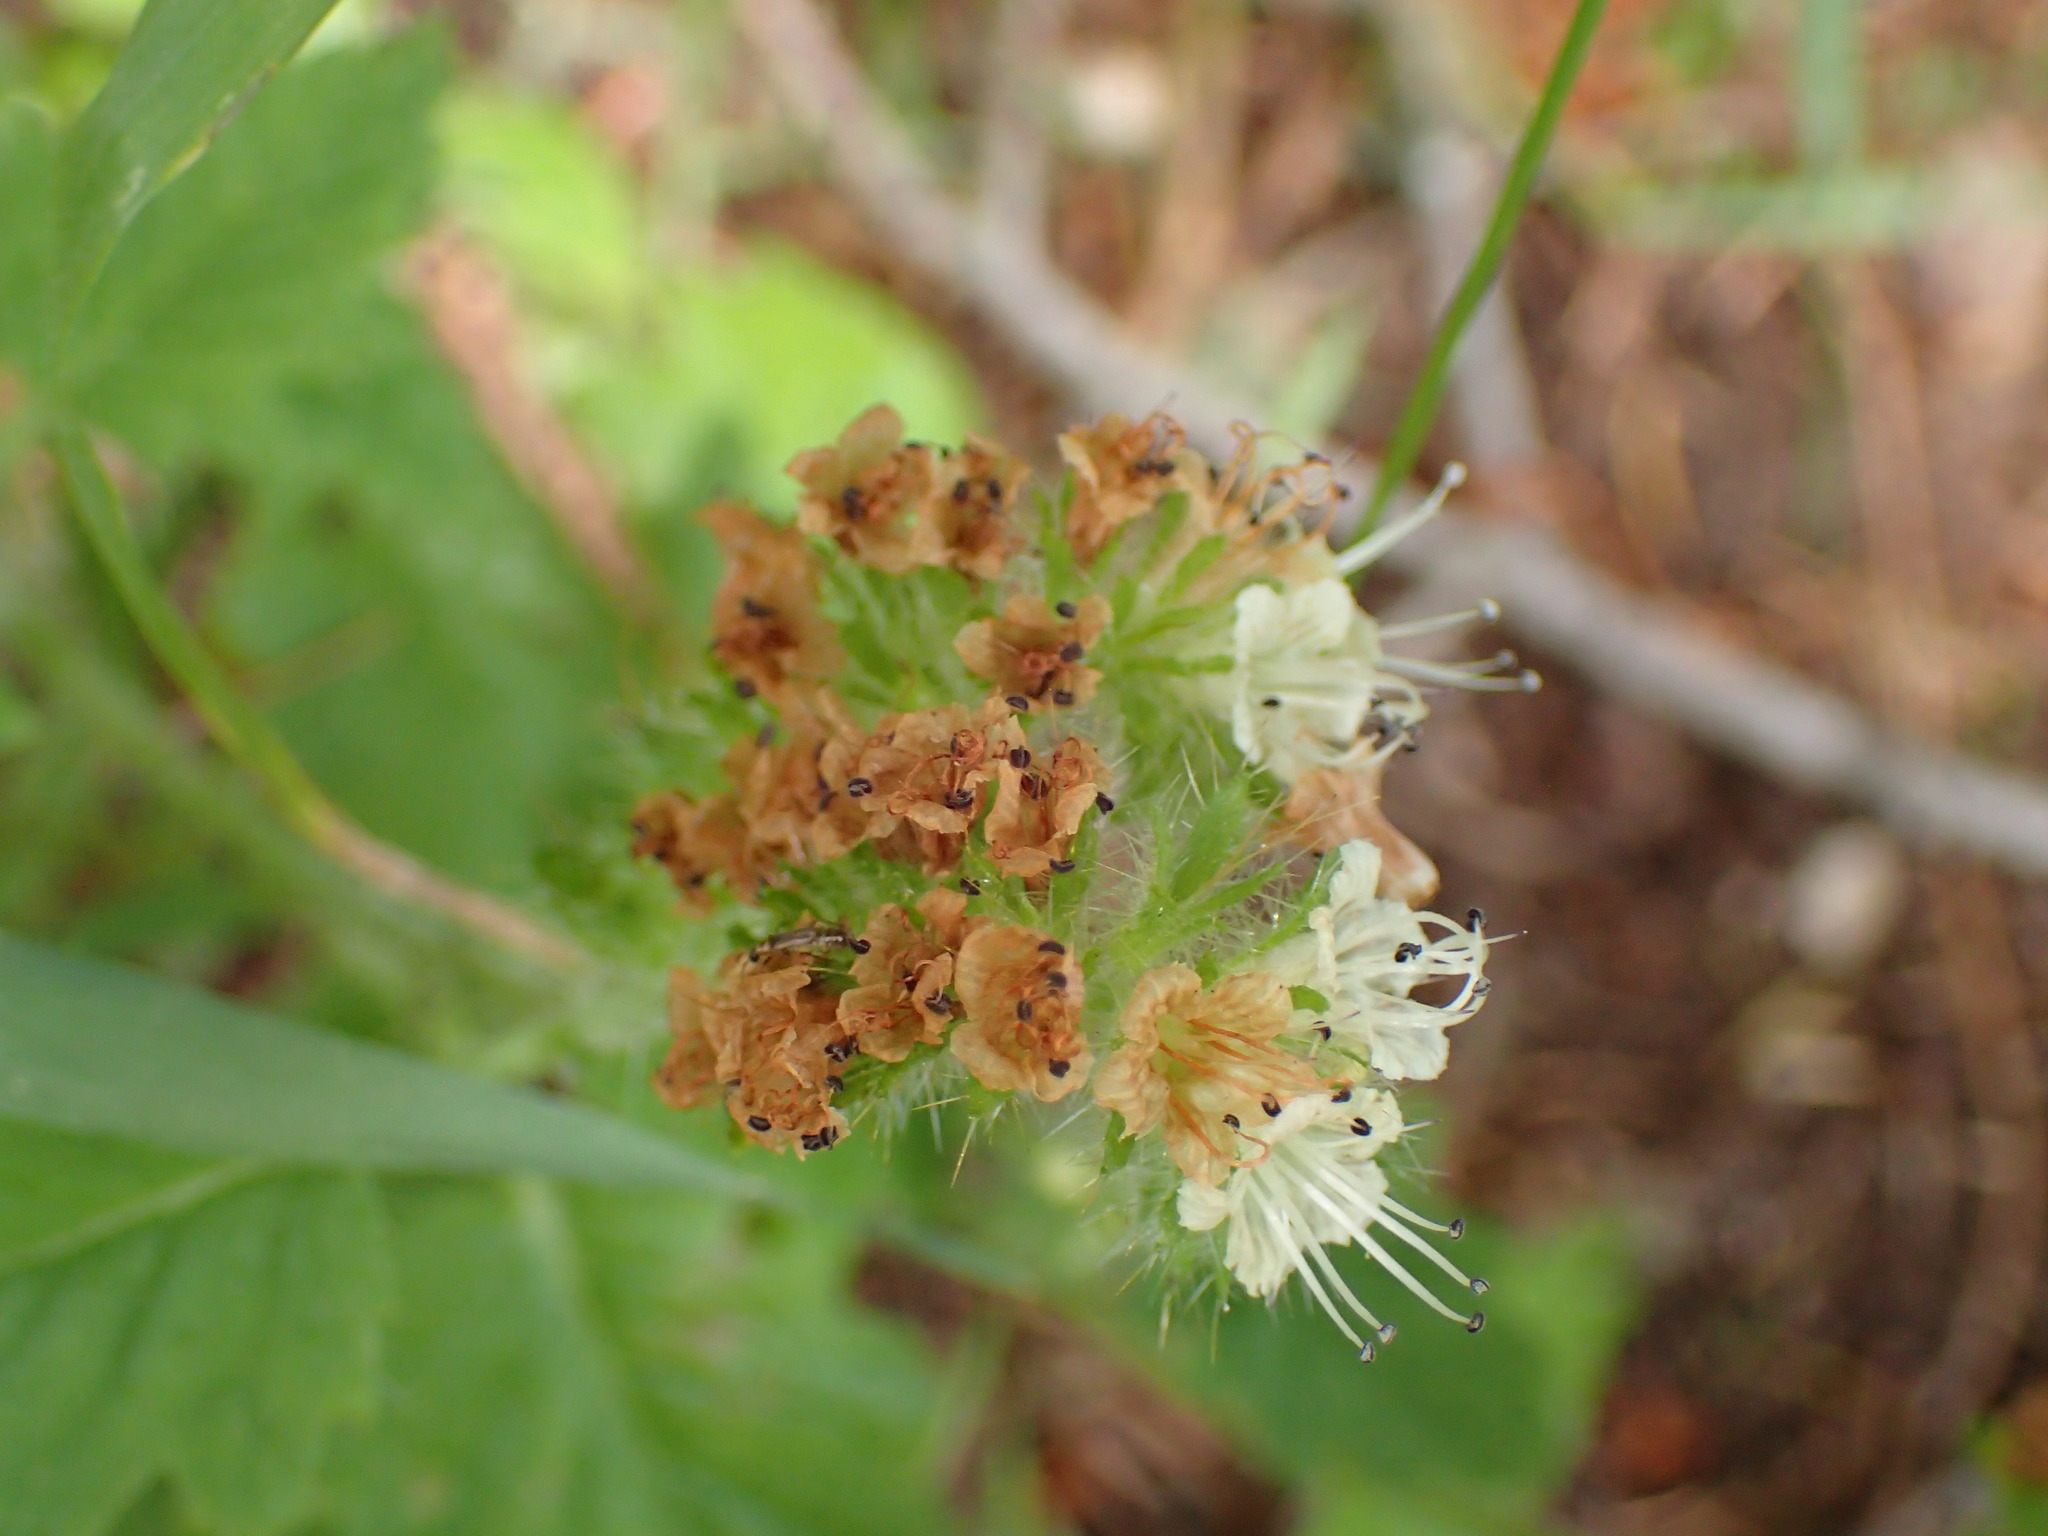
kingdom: Plantae
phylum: Tracheophyta
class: Magnoliopsida
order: Boraginales
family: Hydrophyllaceae
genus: Phacelia
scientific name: Phacelia malvifolia
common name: Mallow-leaf phacelia
